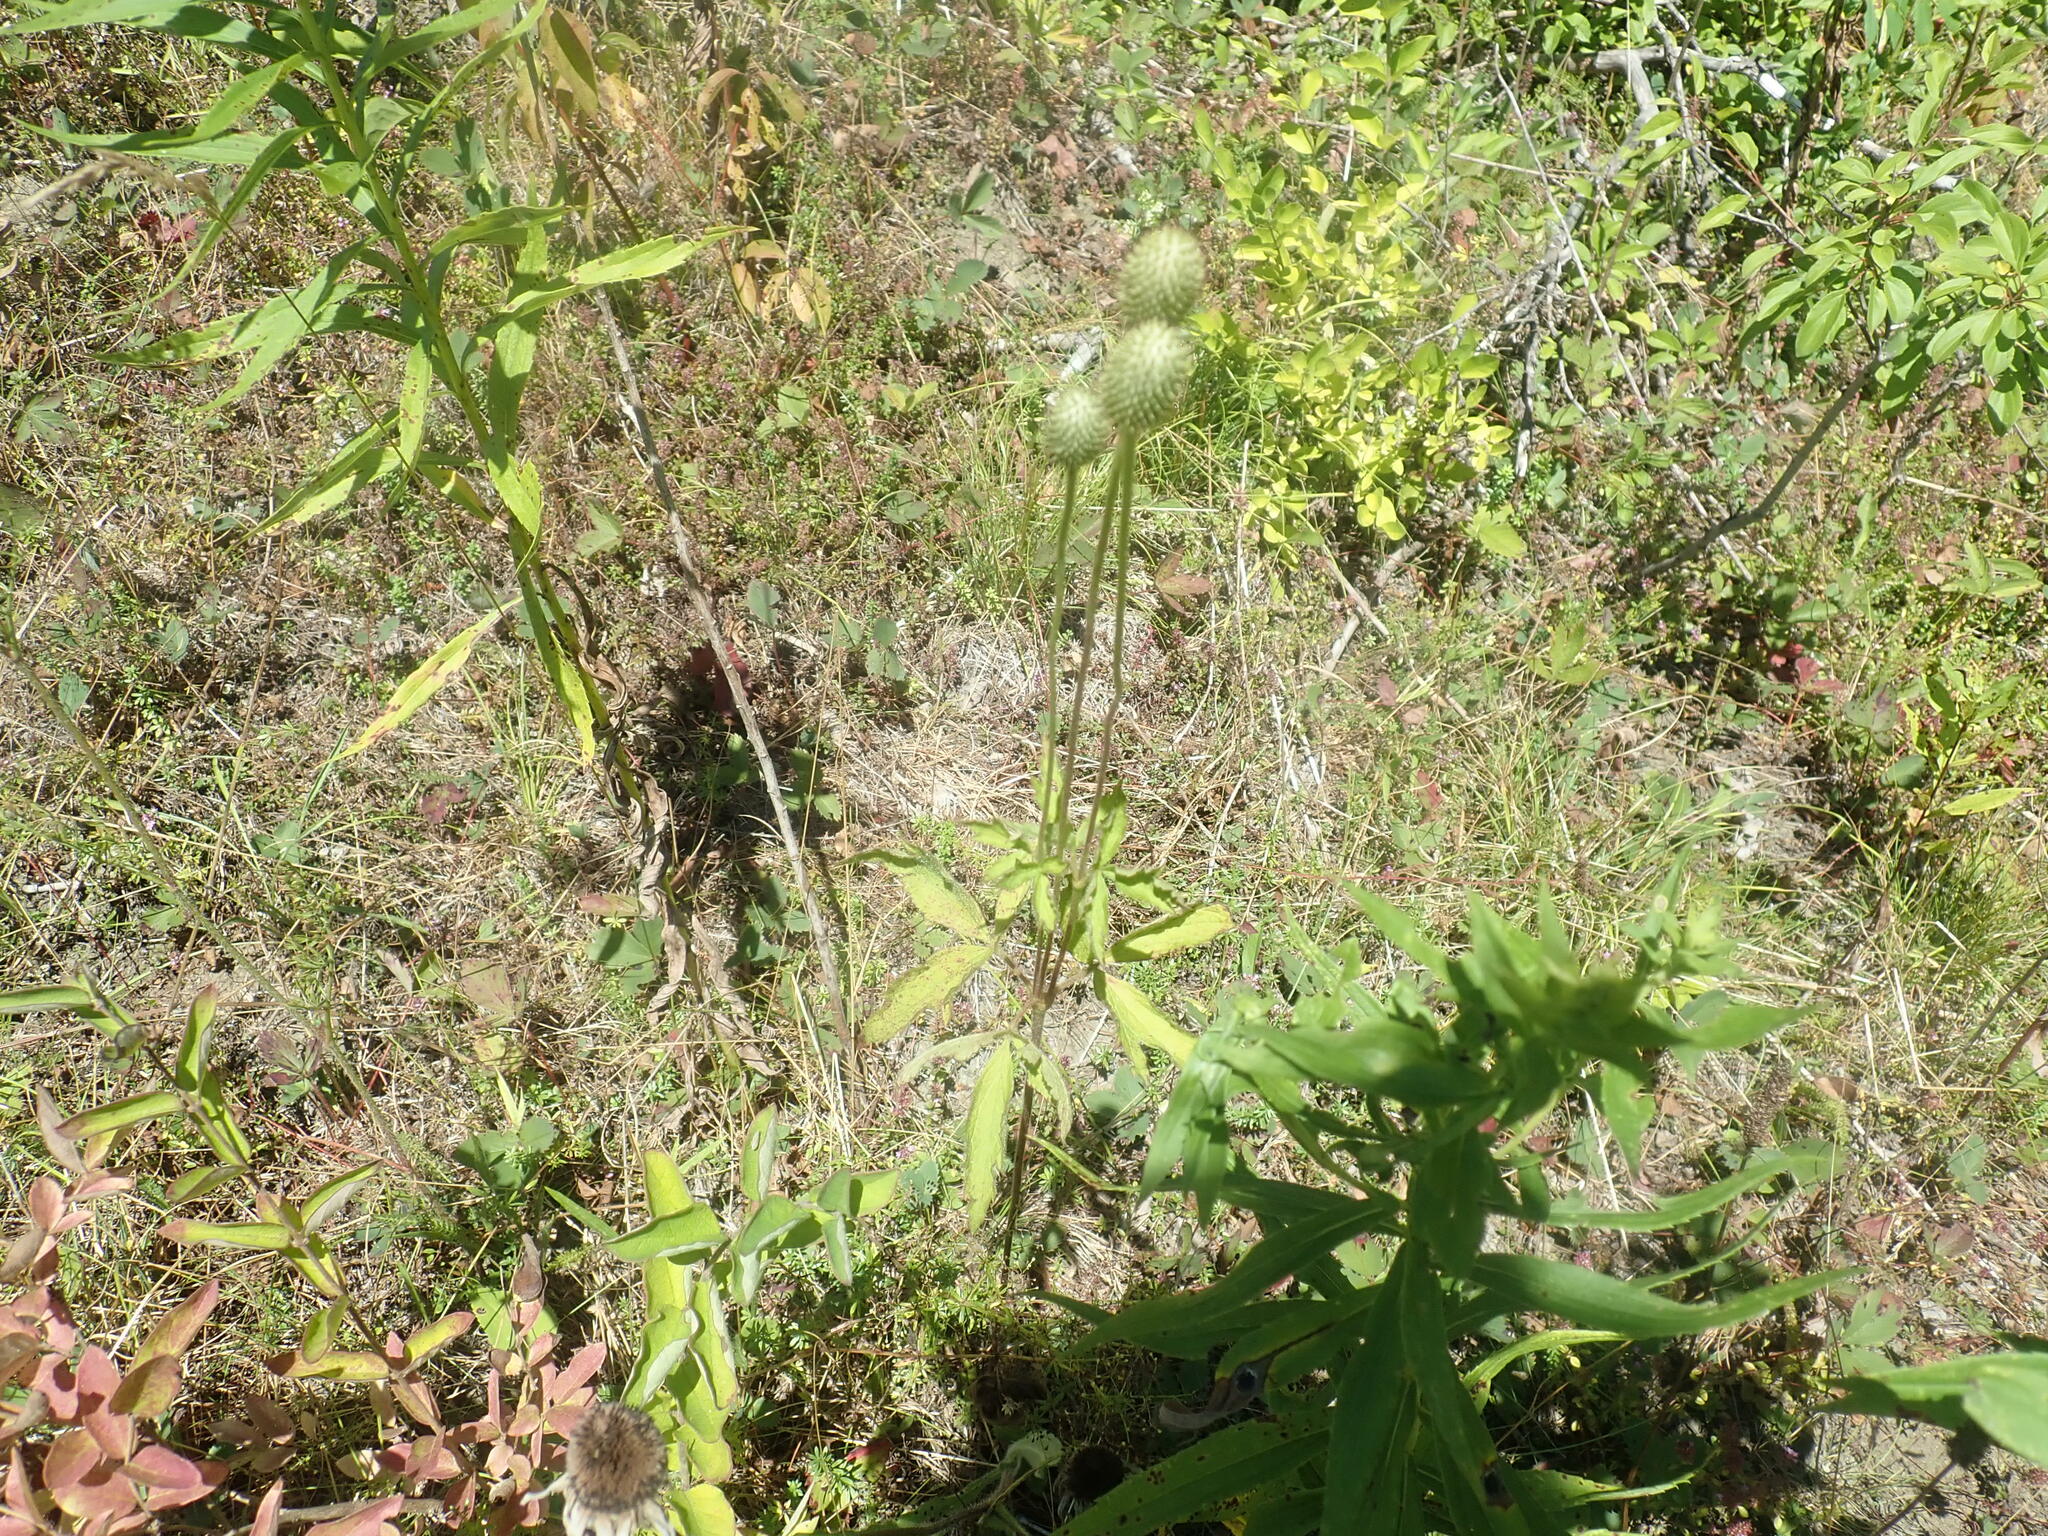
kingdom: Plantae
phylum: Tracheophyta
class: Magnoliopsida
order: Ranunculales
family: Ranunculaceae
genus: Anemone
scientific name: Anemone virginiana
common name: Tall anemone
